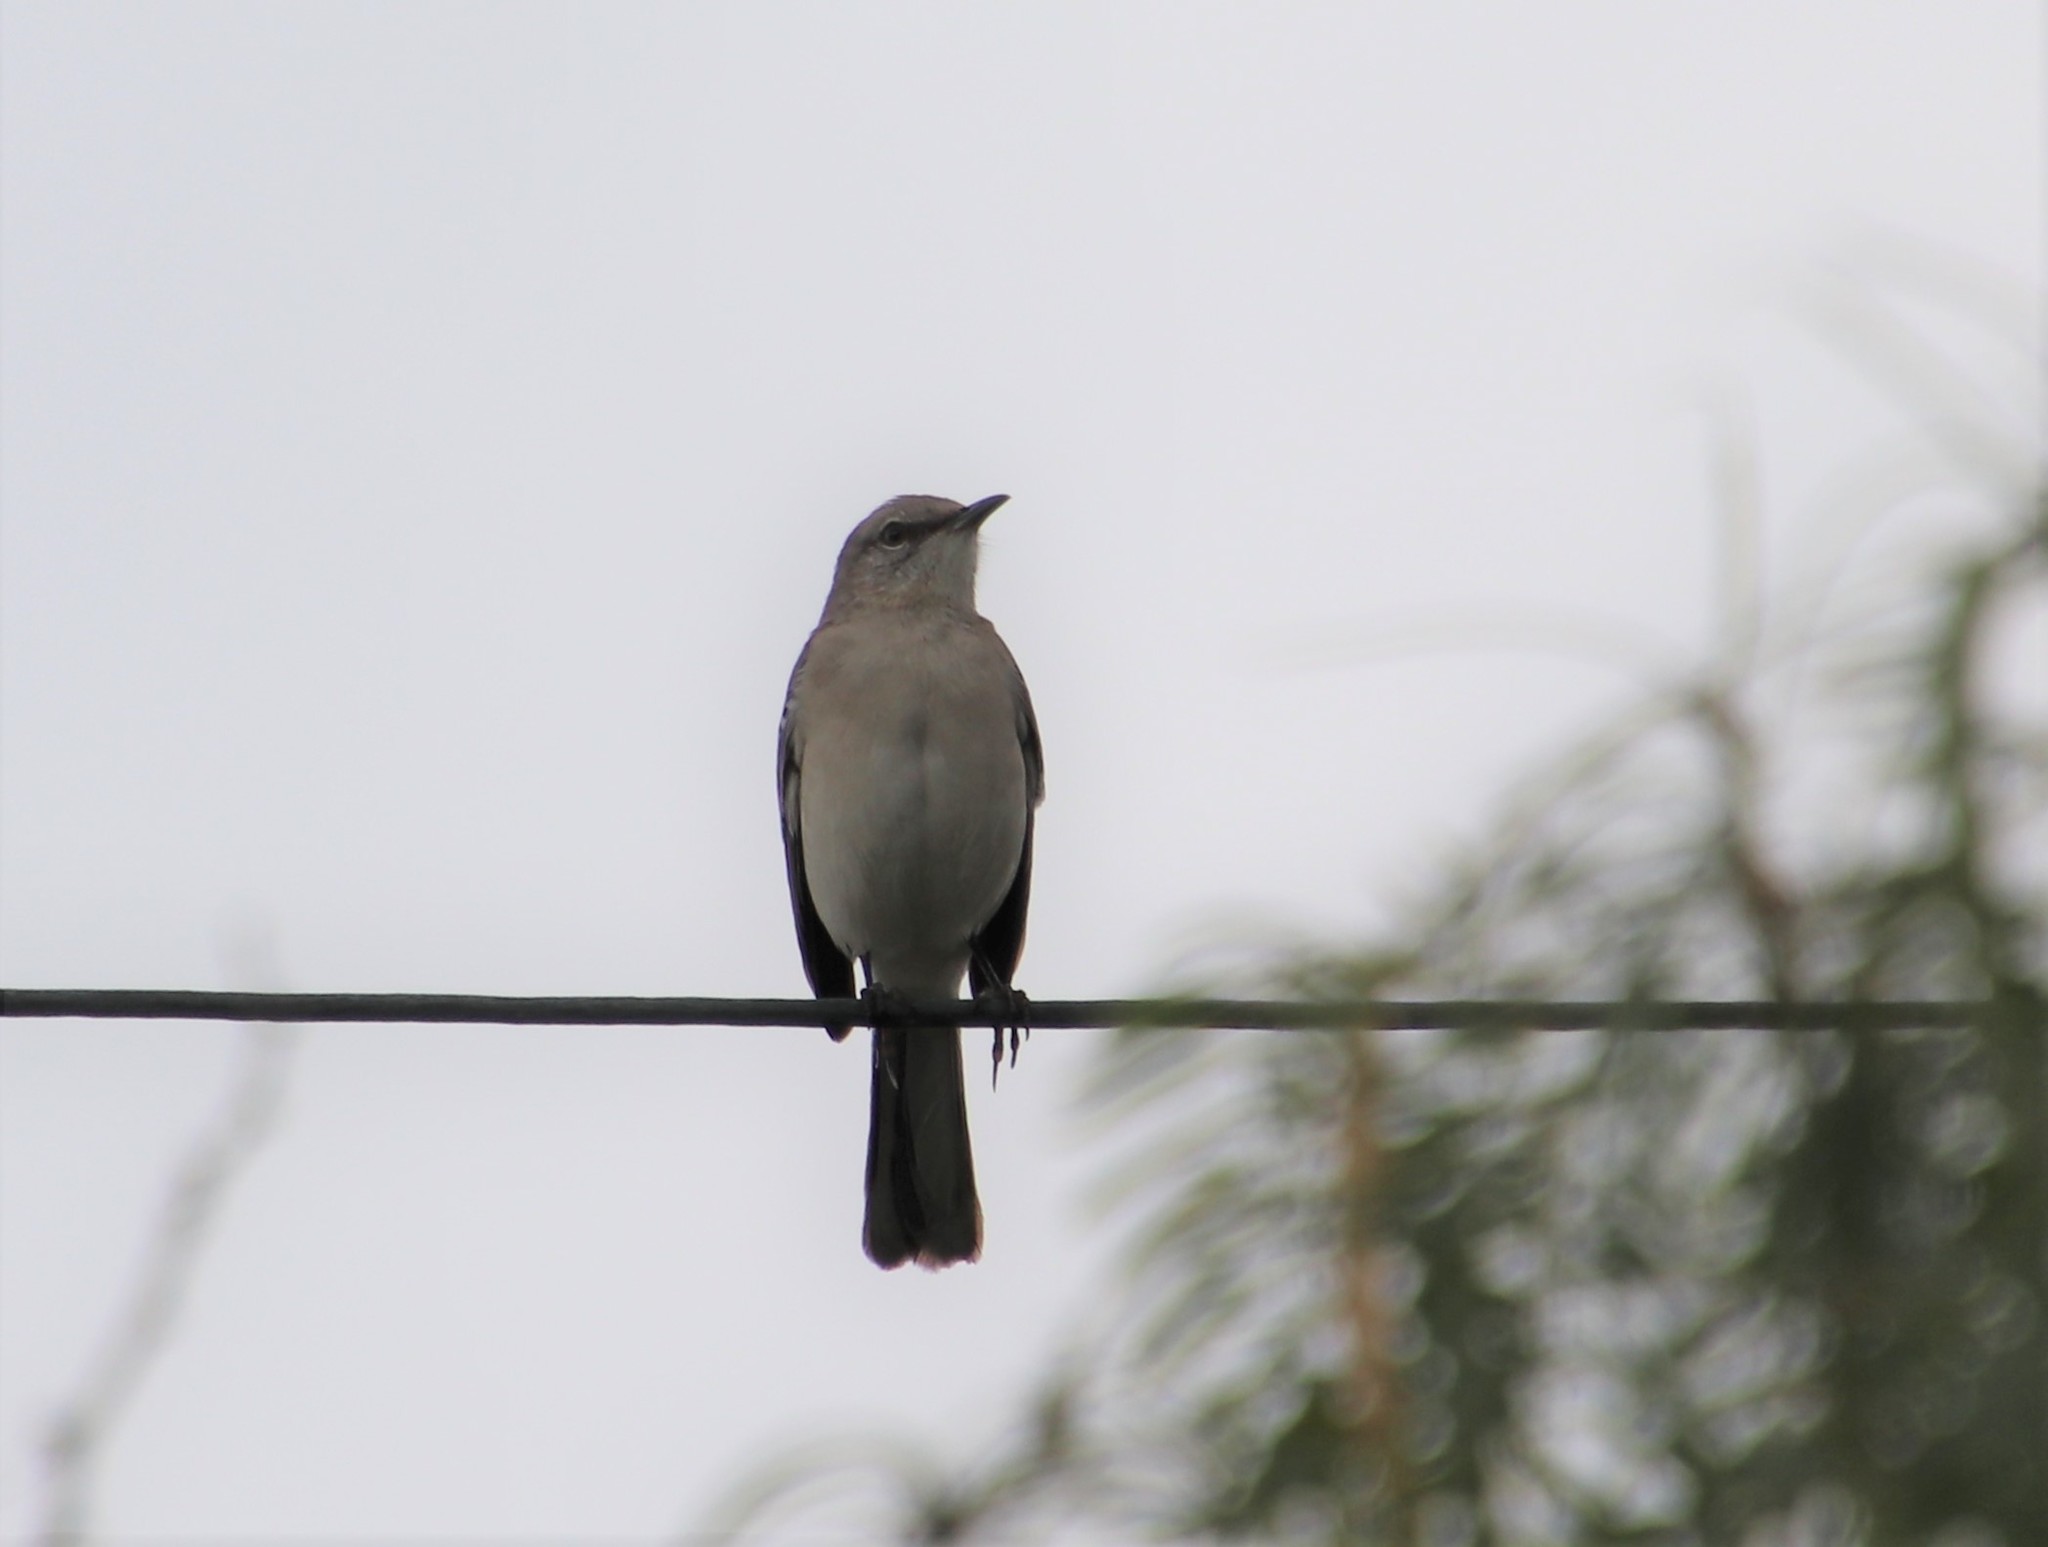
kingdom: Animalia
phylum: Chordata
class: Aves
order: Passeriformes
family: Mimidae
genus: Mimus
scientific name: Mimus polyglottos
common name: Northern mockingbird
